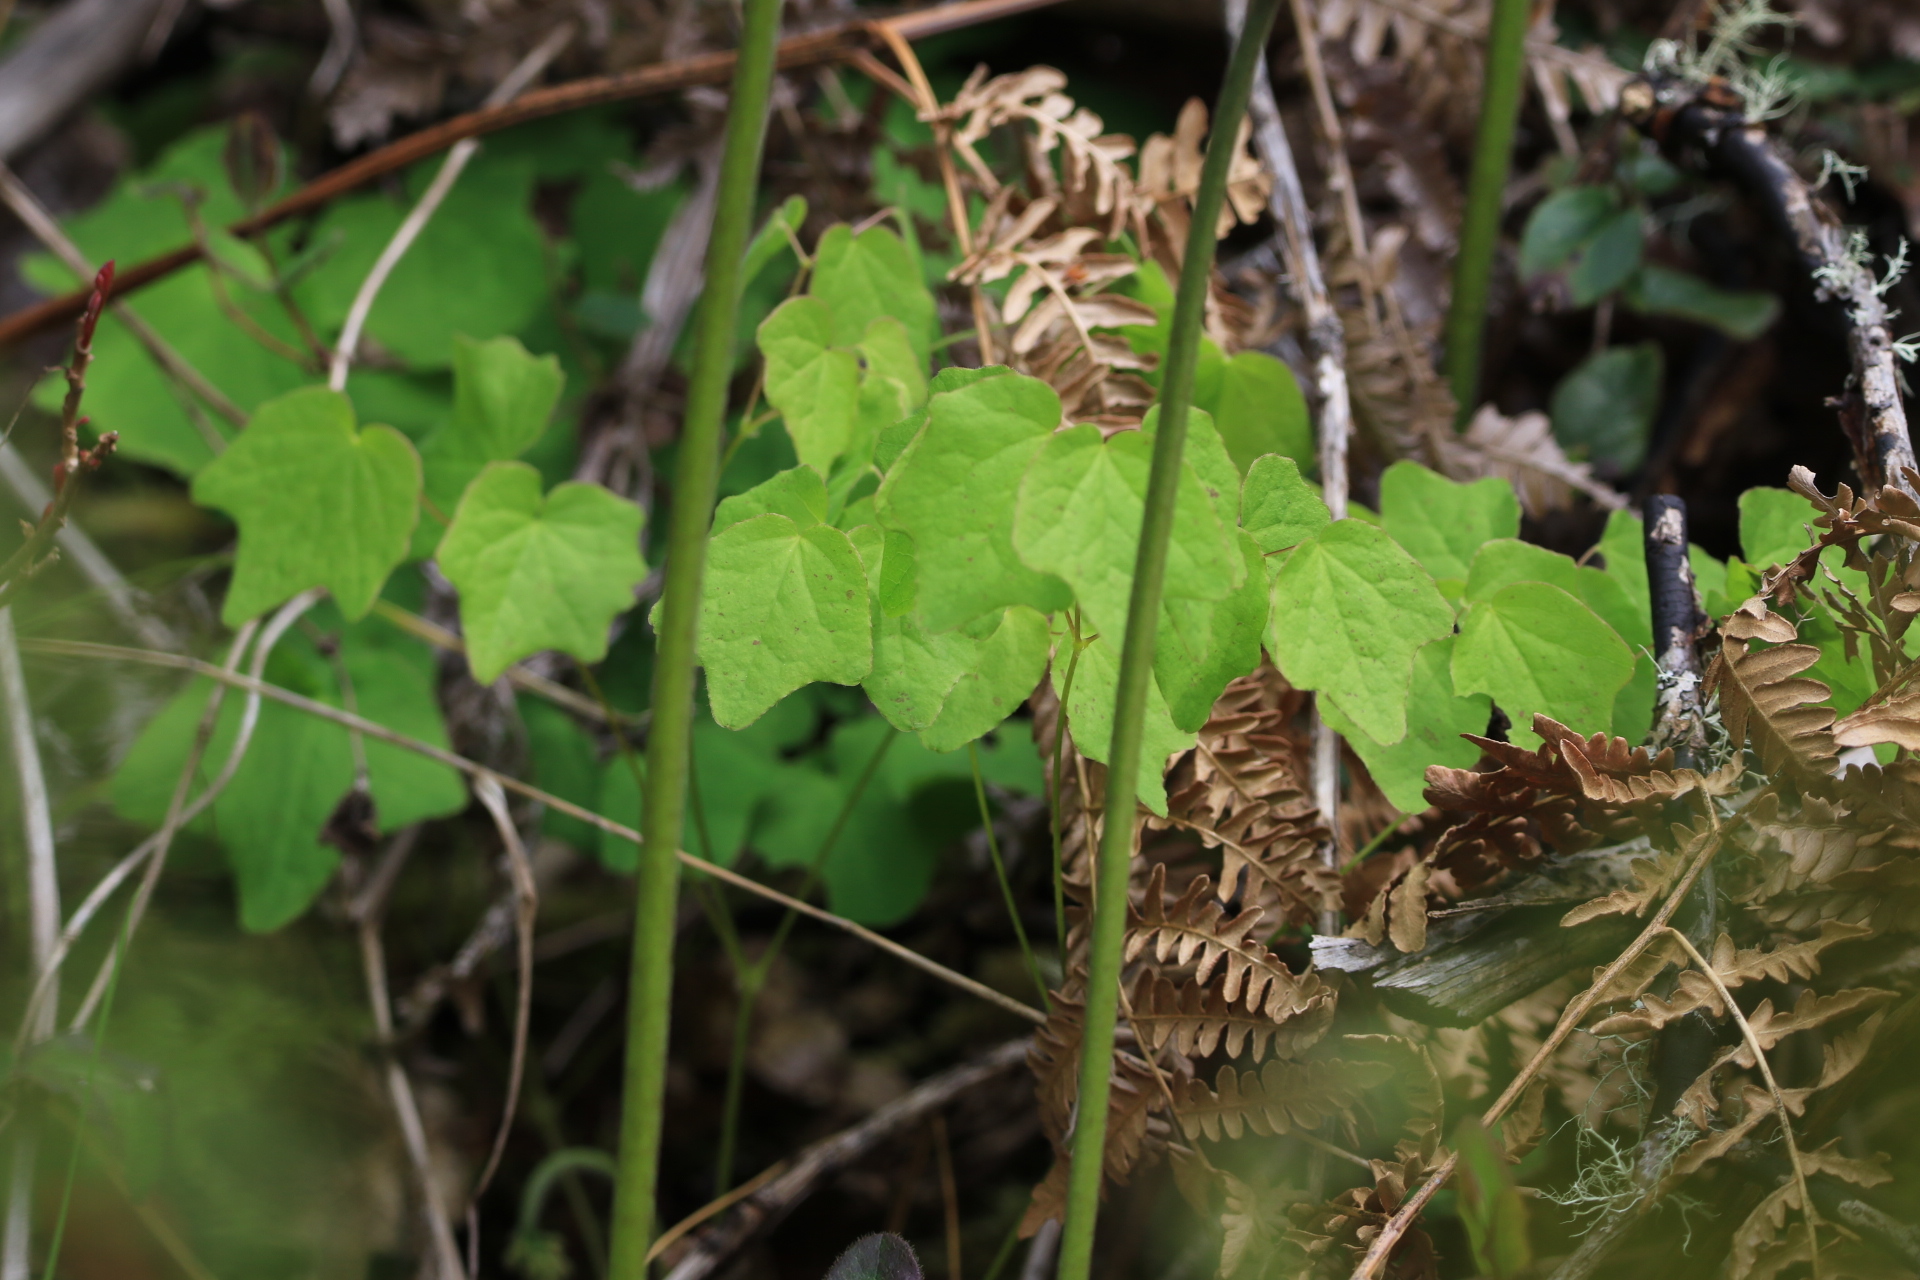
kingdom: Plantae
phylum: Tracheophyta
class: Magnoliopsida
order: Ranunculales
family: Berberidaceae
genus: Vancouveria
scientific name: Vancouveria hexandra
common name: Northern inside-out-flower
